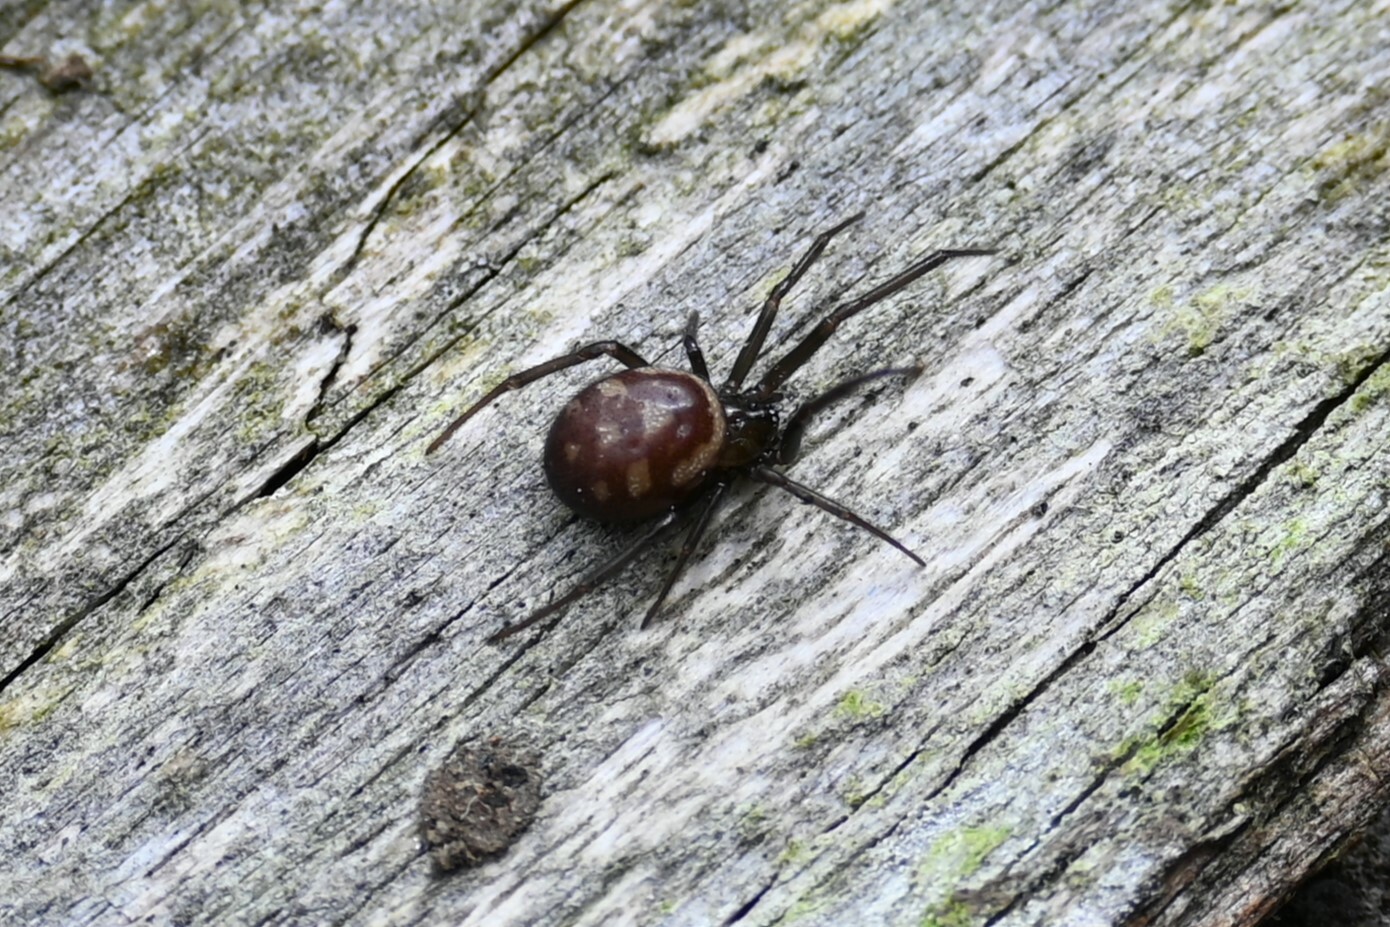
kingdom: Animalia
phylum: Arthropoda
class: Arachnida
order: Araneae
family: Theridiidae
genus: Steatoda
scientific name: Steatoda grossa
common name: False black widow
